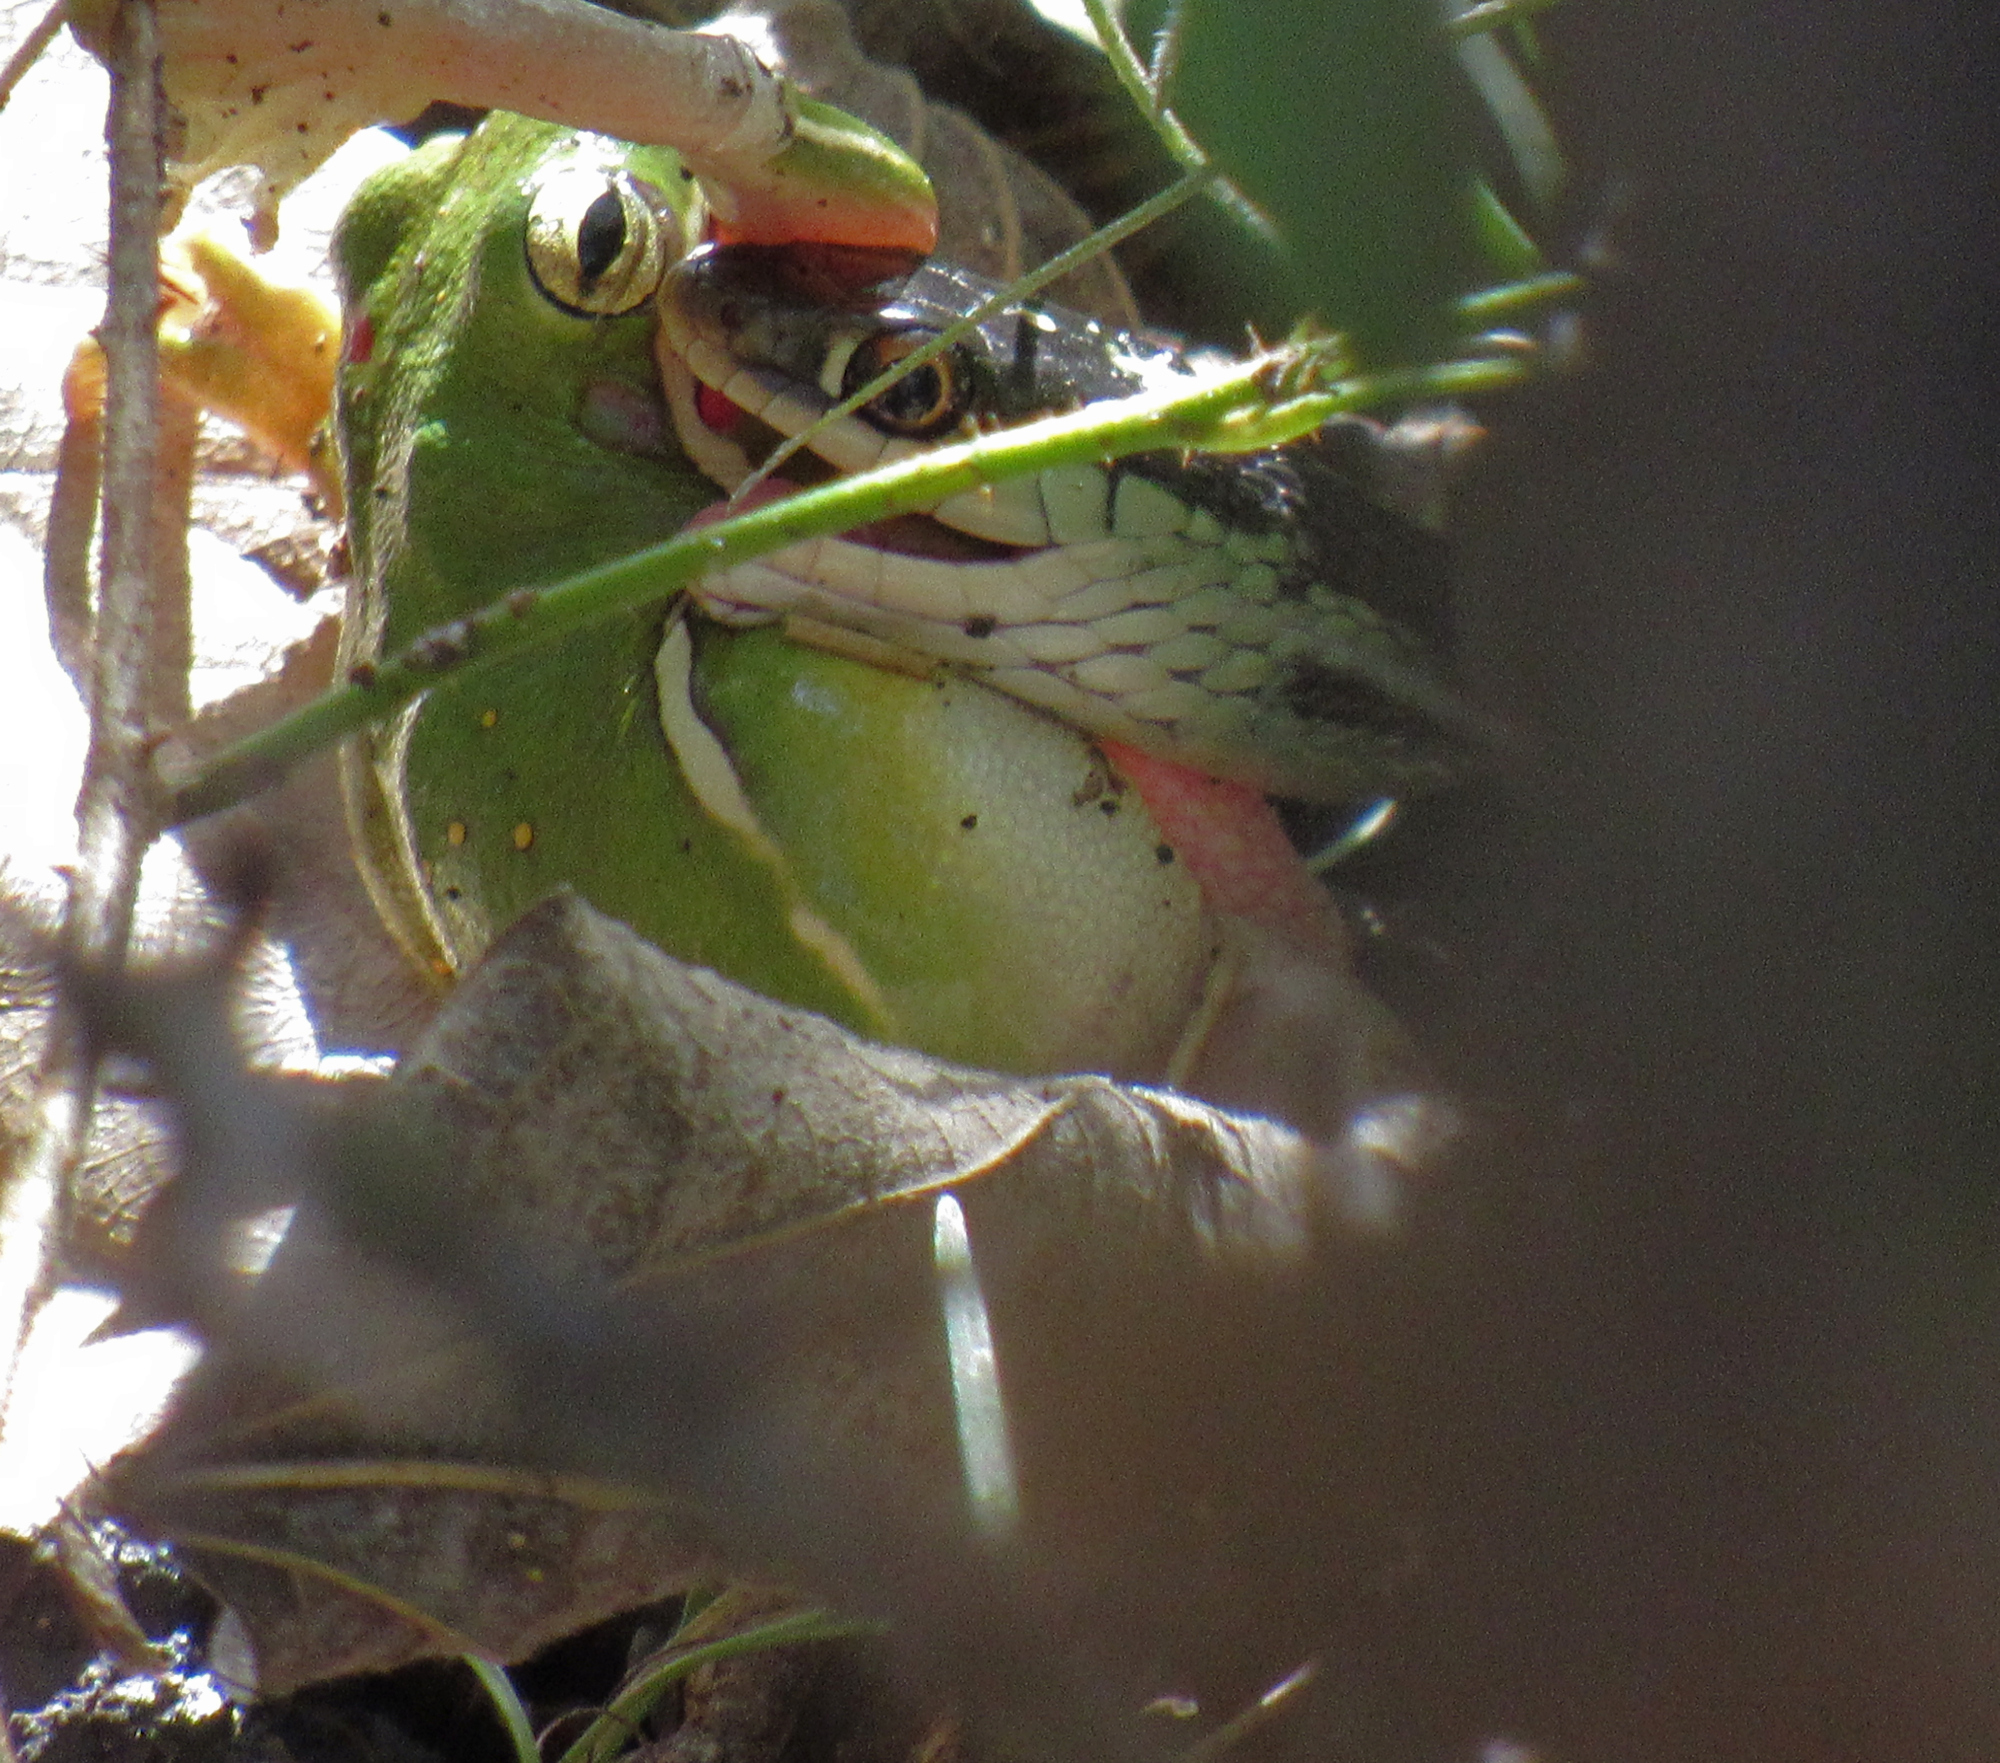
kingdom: Animalia
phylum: Chordata
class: Squamata
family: Colubridae
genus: Thamnophis
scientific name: Thamnophis proximus
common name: Western ribbon snake
